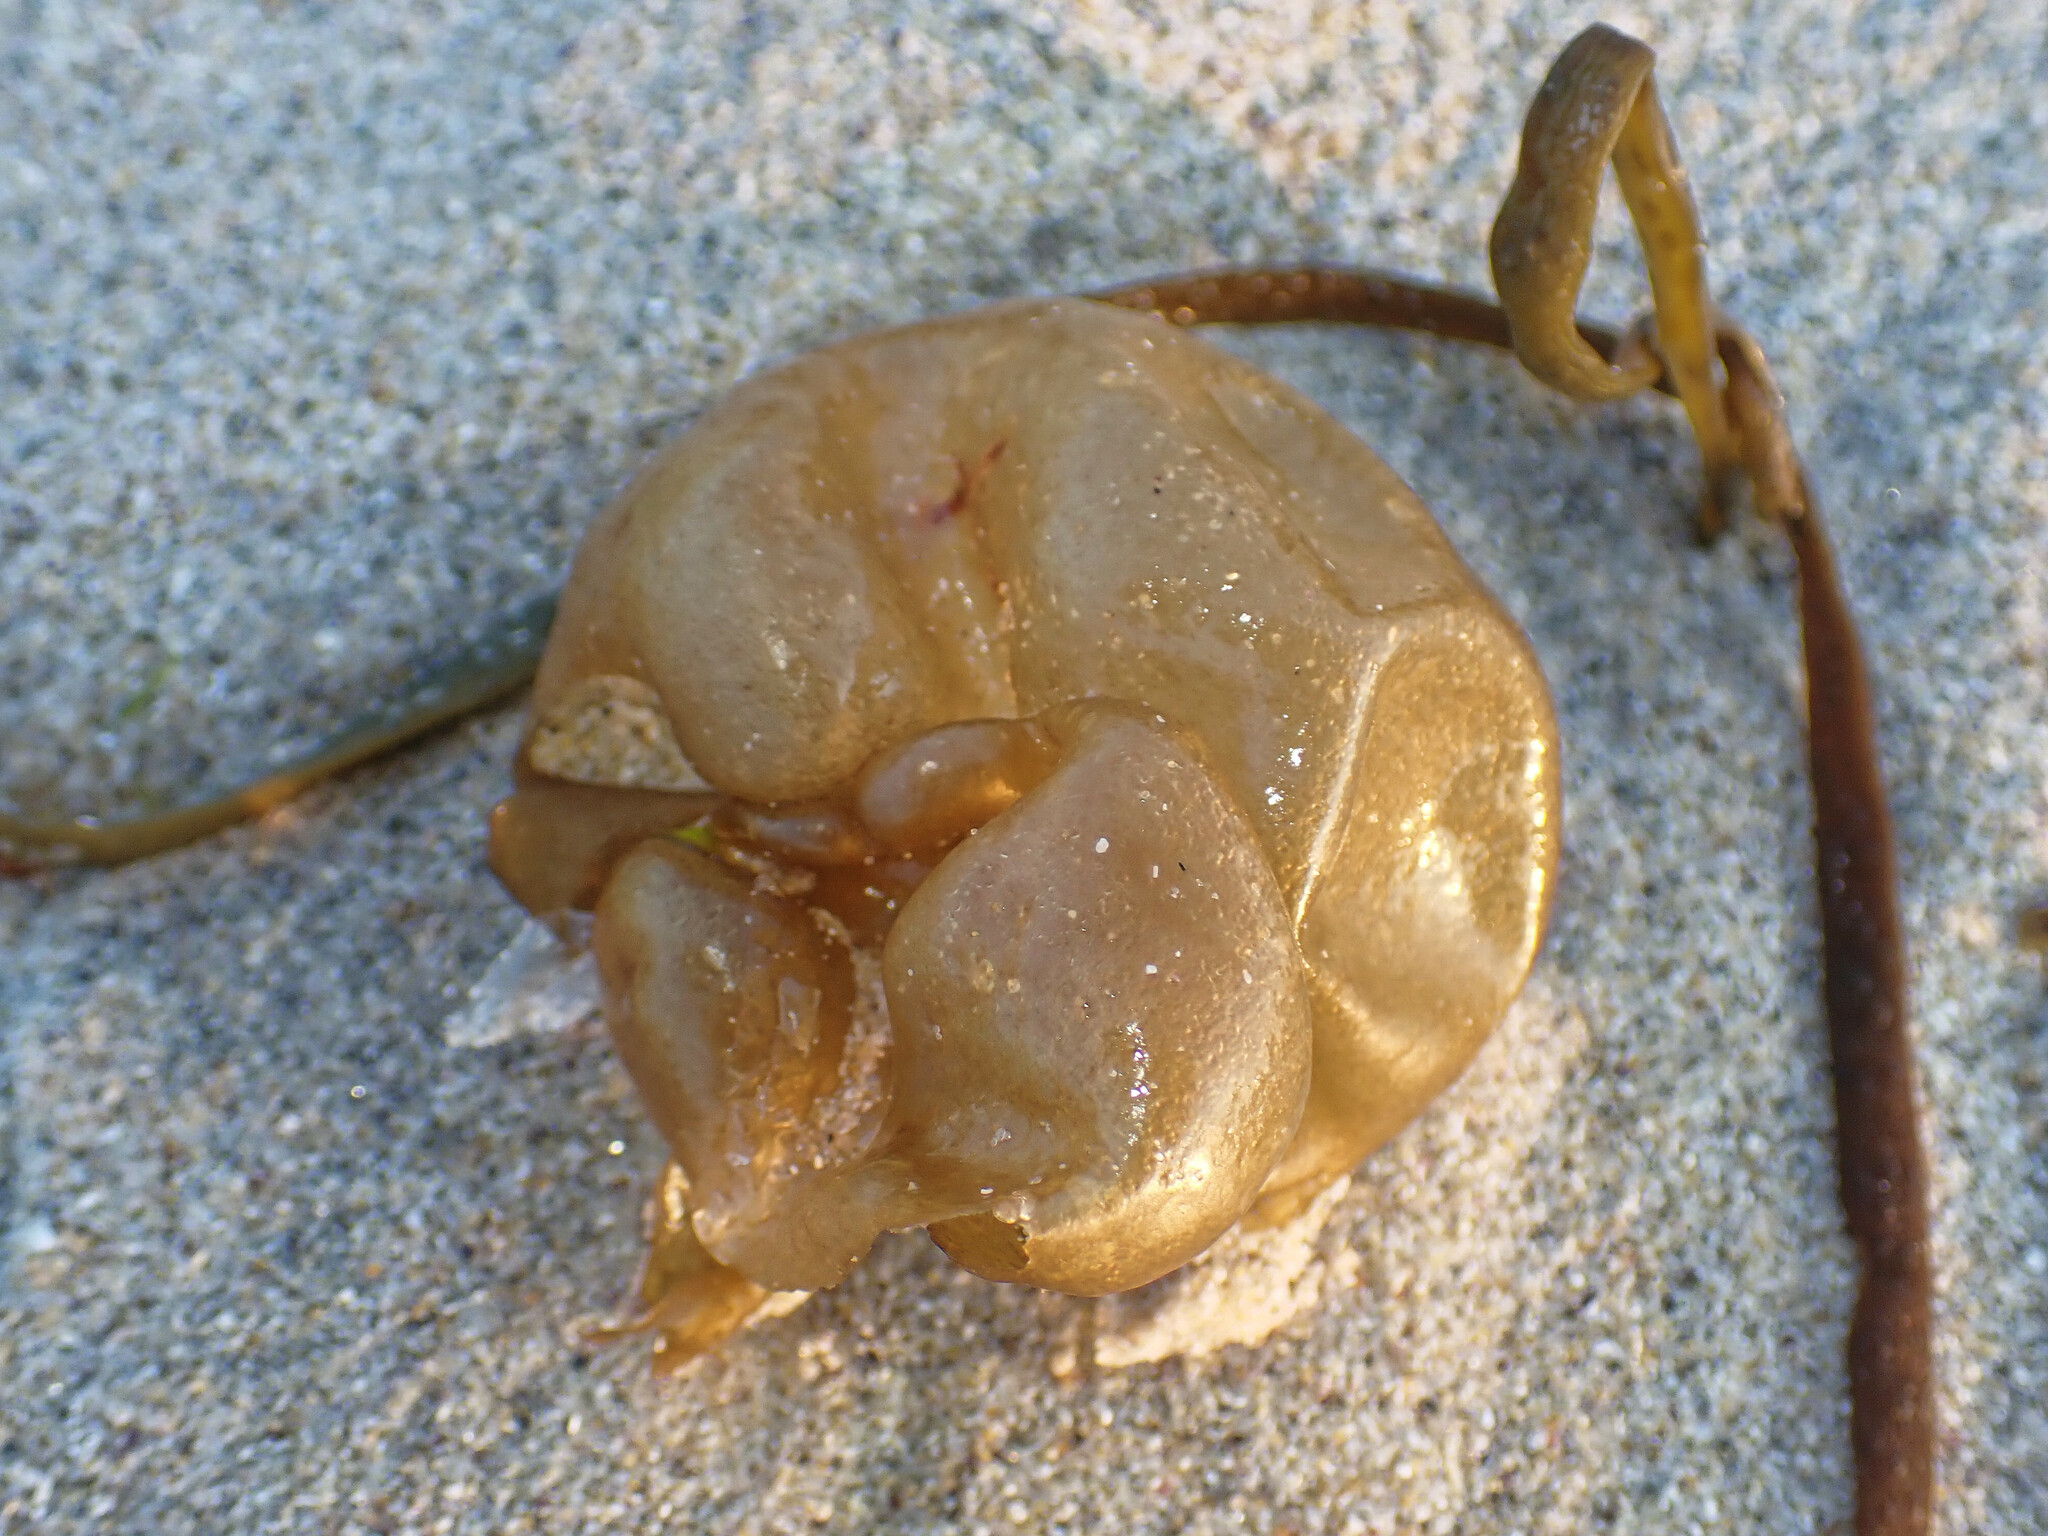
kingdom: Chromista
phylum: Ochrophyta
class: Phaeophyceae
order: Scytosiphonales
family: Scytosiphonaceae
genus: Colpomenia
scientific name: Colpomenia peregrina
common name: Oyster thief
